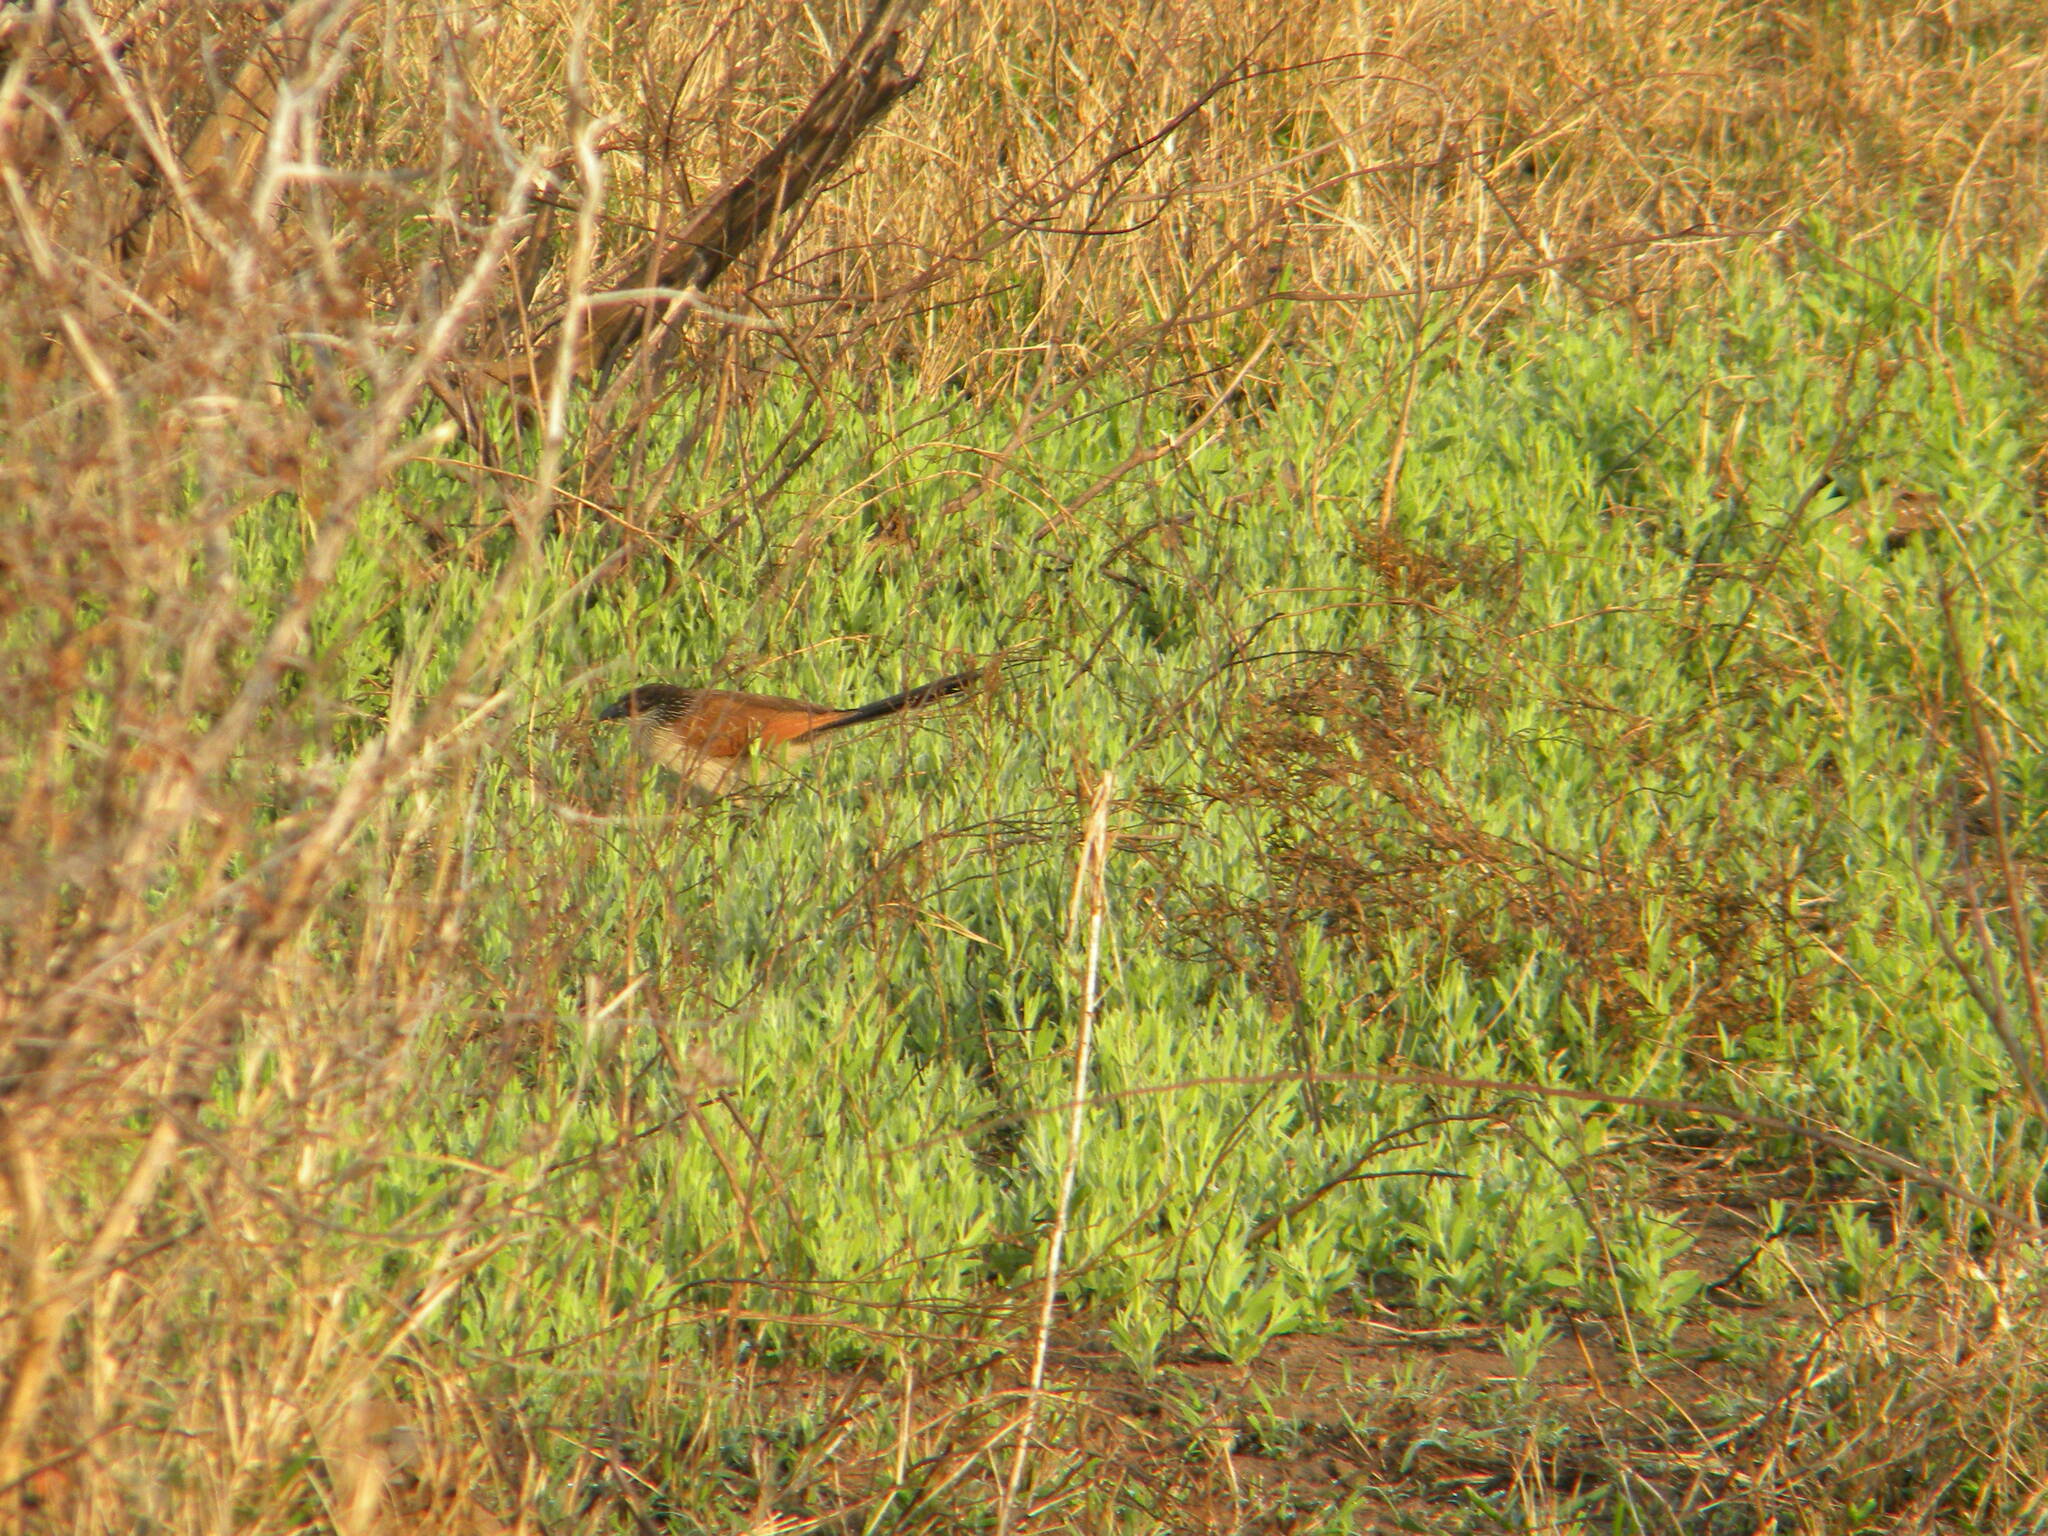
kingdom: Animalia
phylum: Chordata
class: Aves
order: Cuculiformes
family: Cuculidae
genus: Centropus
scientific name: Centropus superciliosus
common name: White-browed coucal
